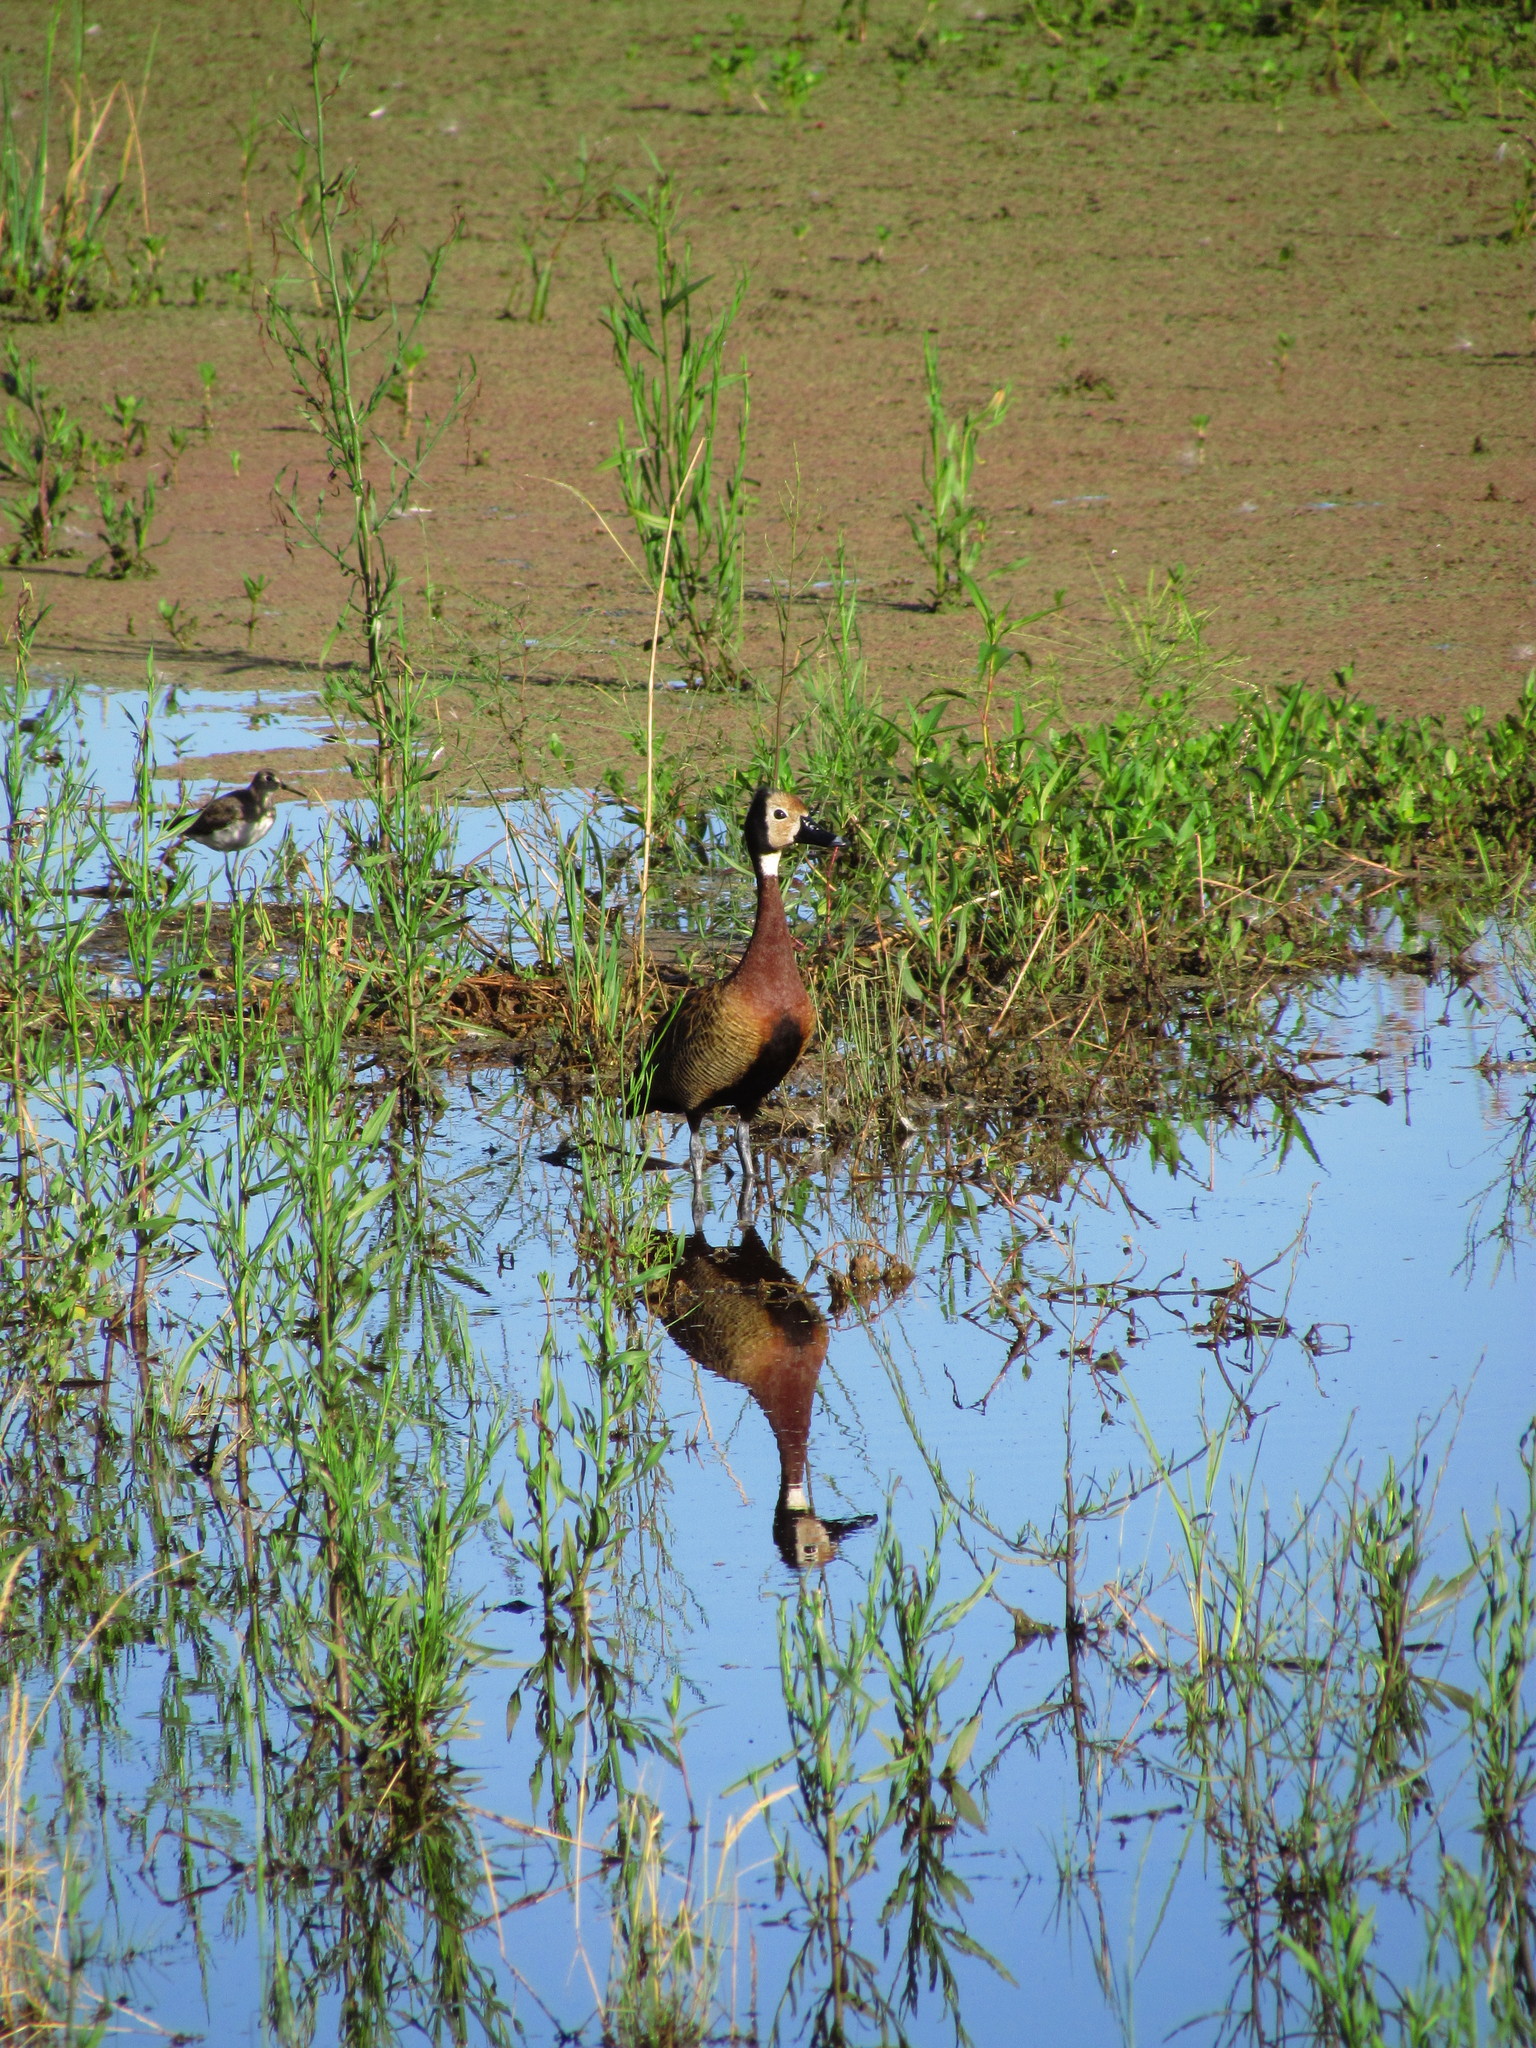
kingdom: Animalia
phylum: Chordata
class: Aves
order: Anseriformes
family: Anatidae
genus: Dendrocygna
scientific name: Dendrocygna viduata
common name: White-faced whistling duck
